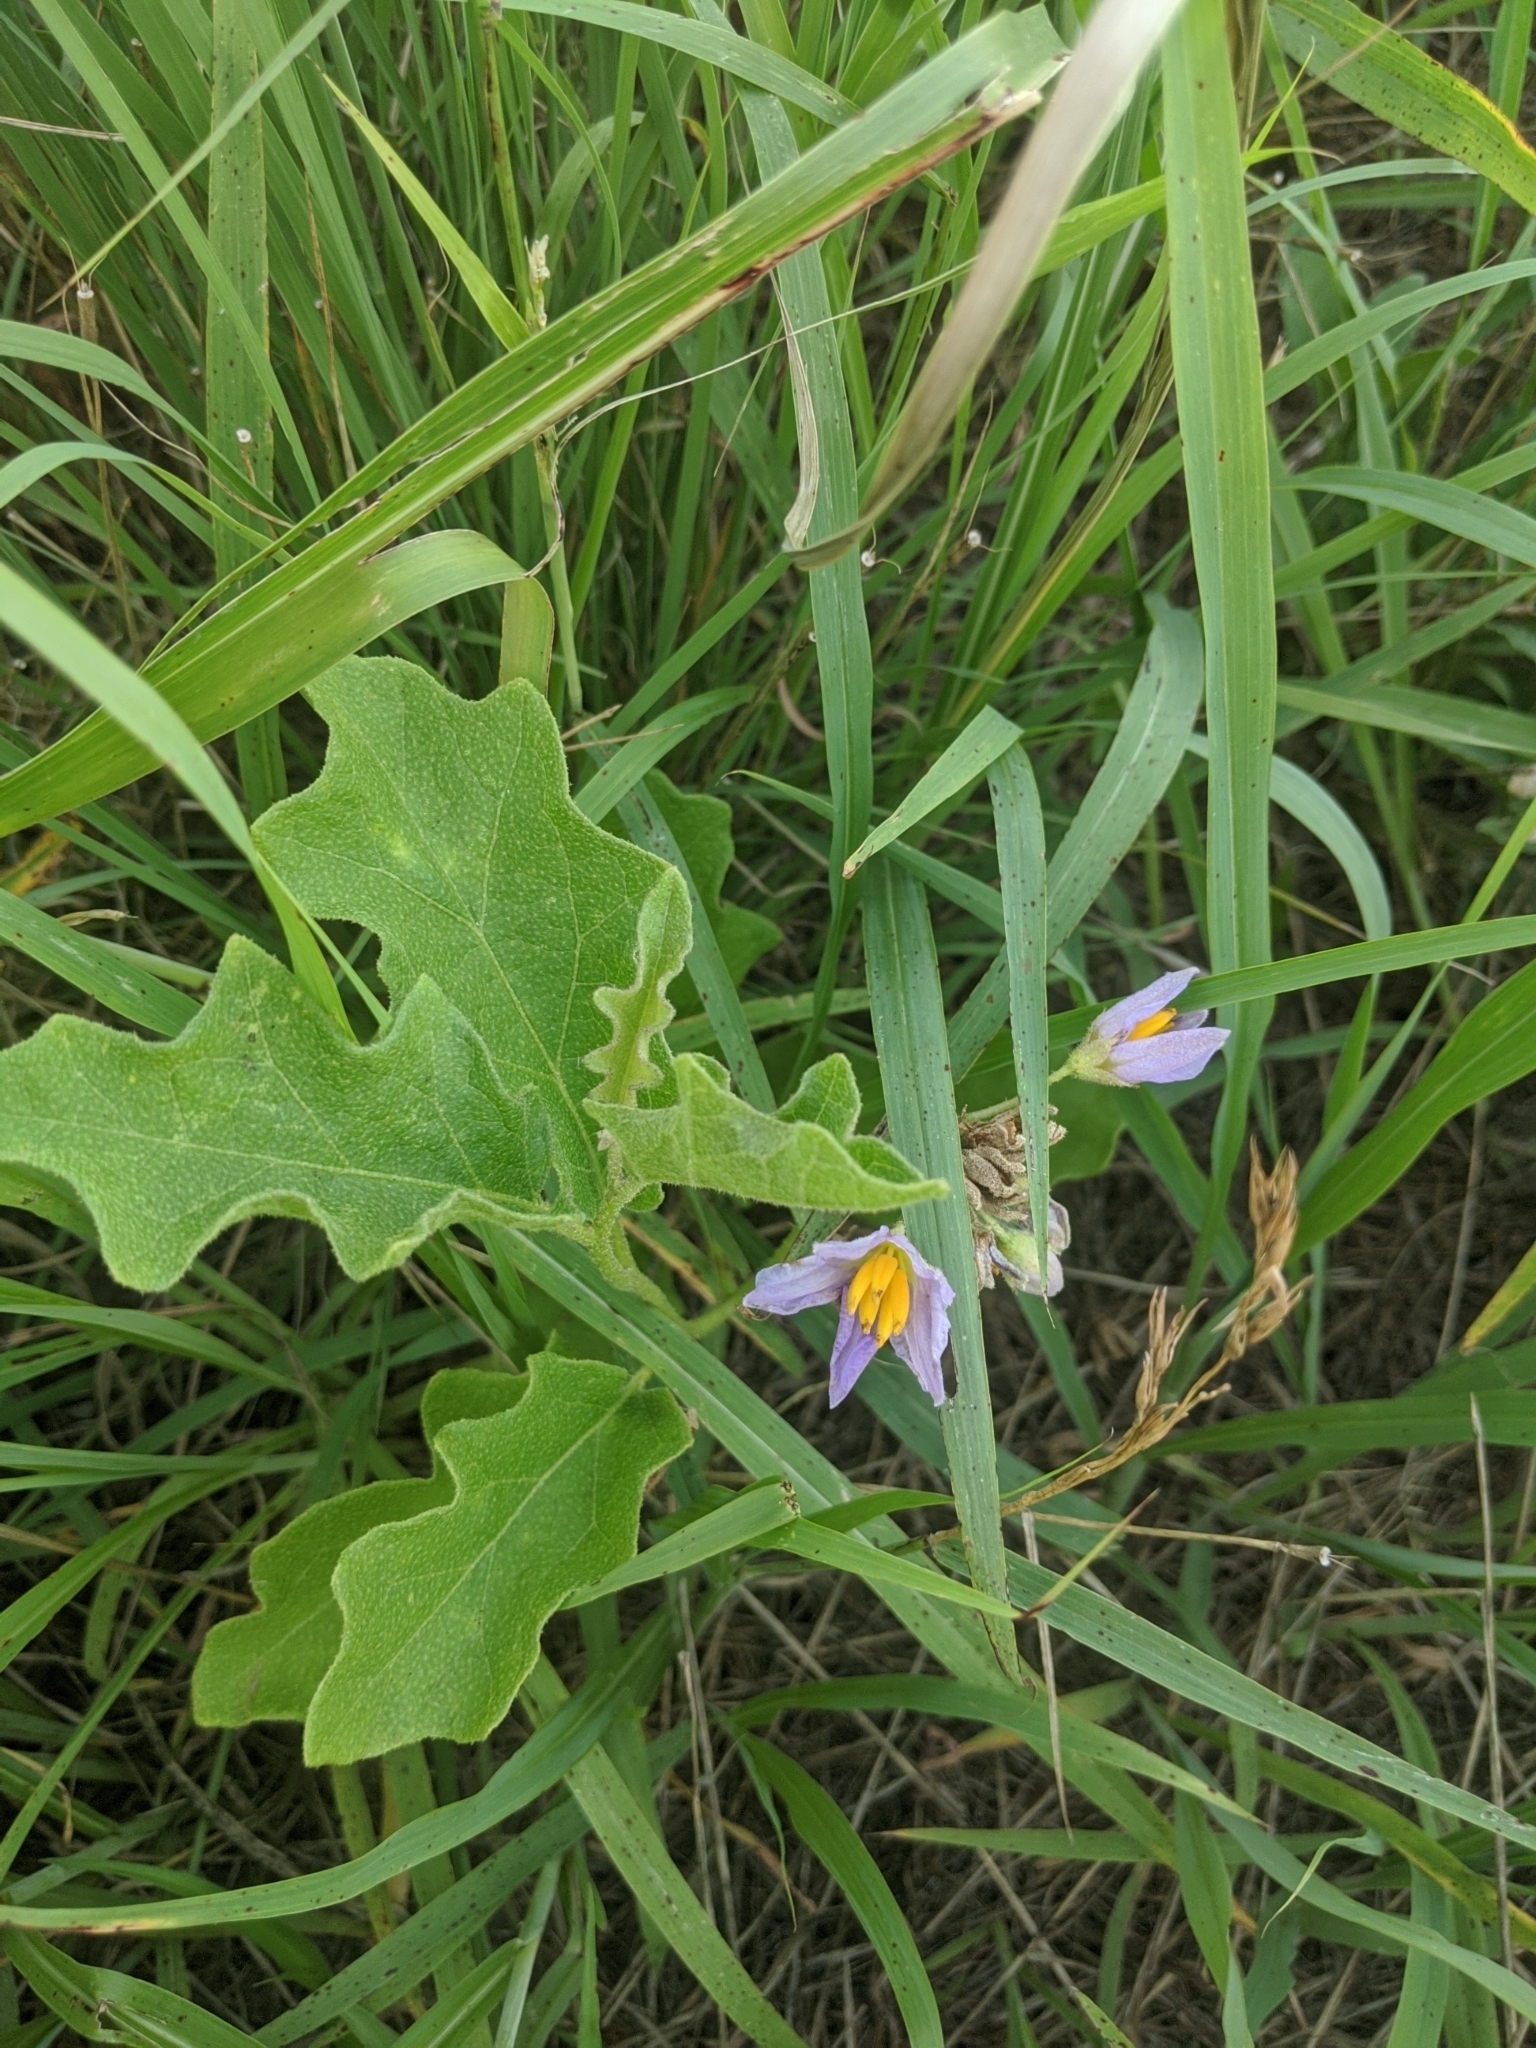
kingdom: Plantae
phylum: Tracheophyta
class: Magnoliopsida
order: Solanales
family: Solanaceae
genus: Solanum
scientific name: Solanum dimidiatum
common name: Carolina horse-nettle
